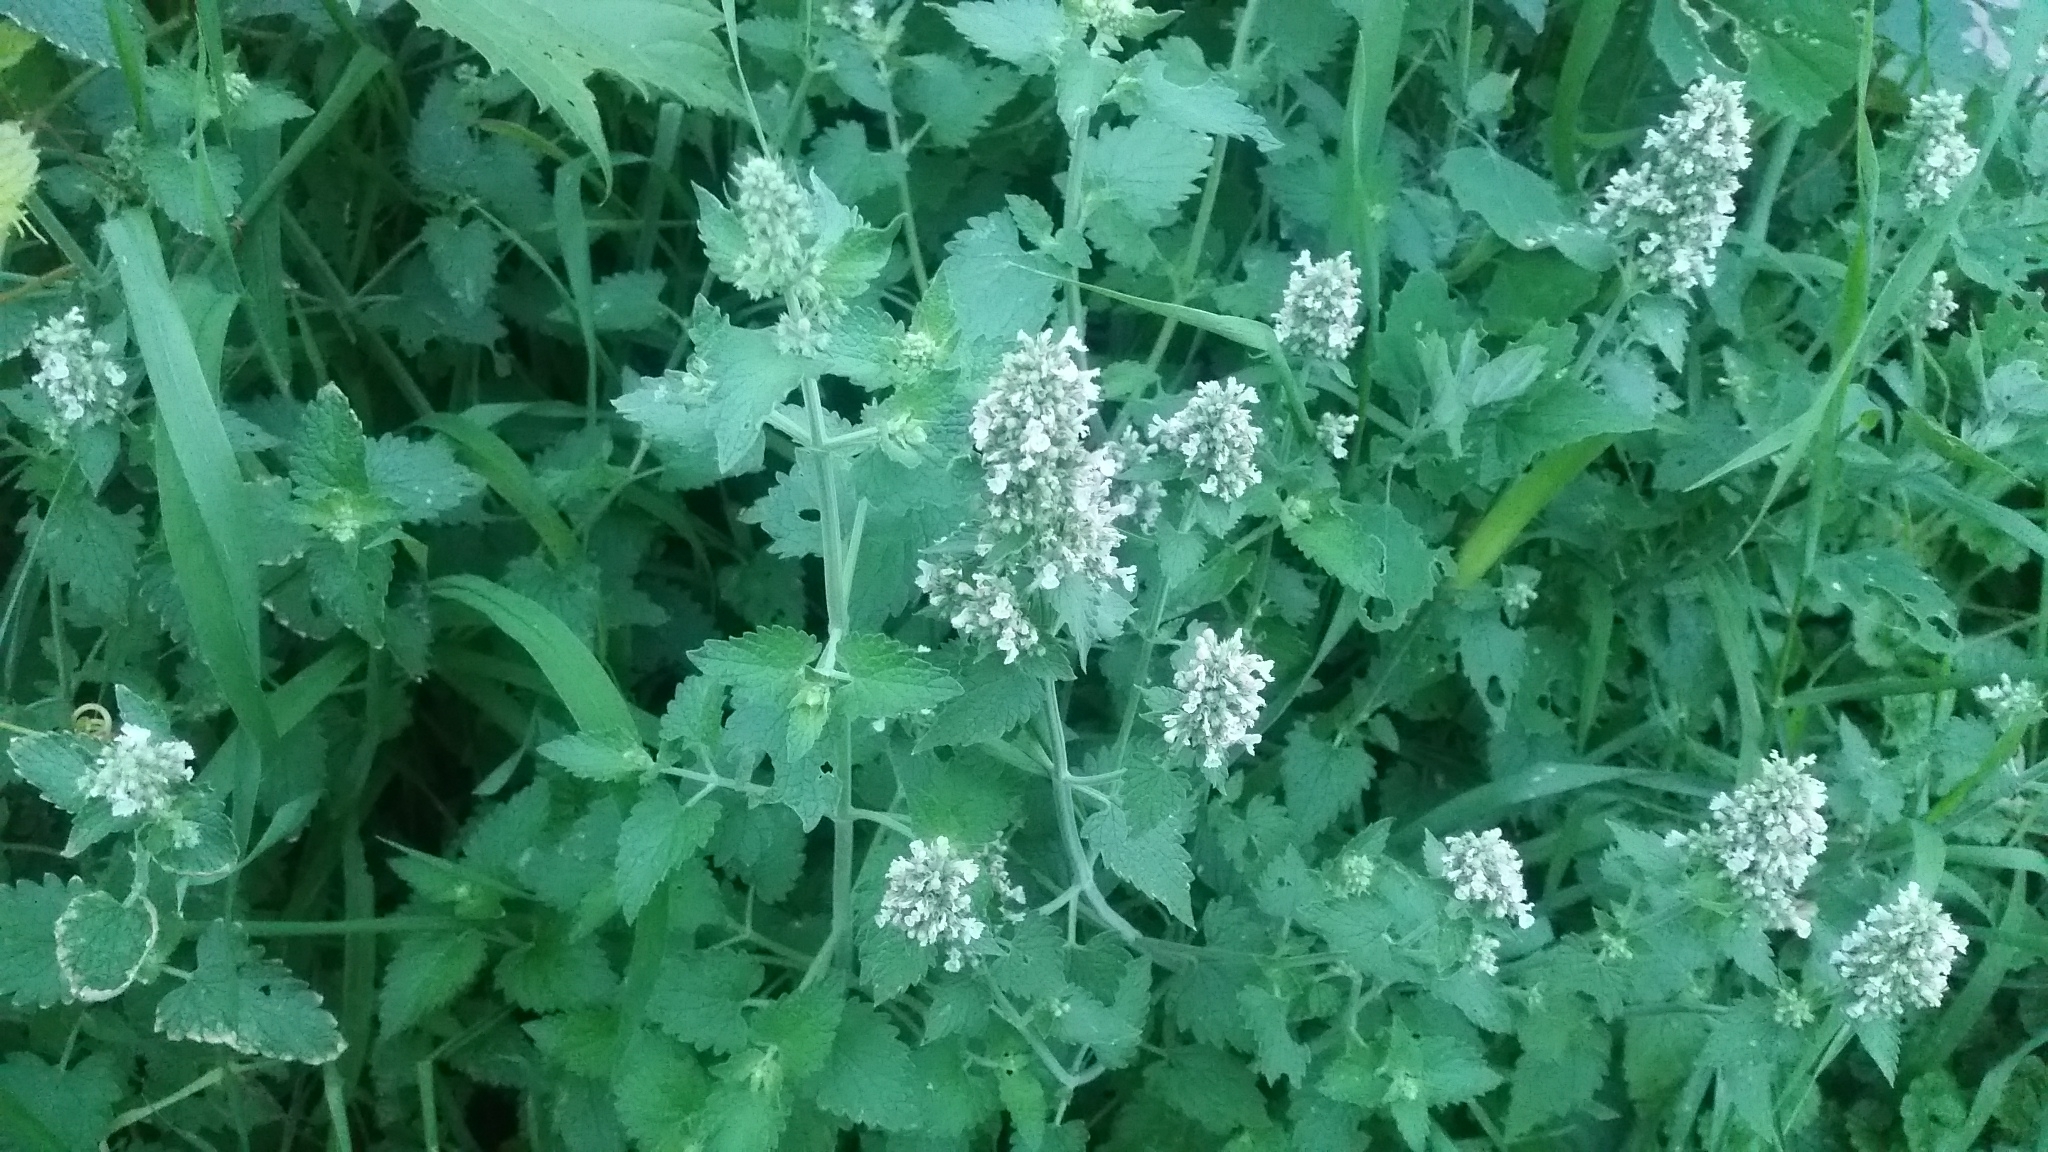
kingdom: Plantae
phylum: Tracheophyta
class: Magnoliopsida
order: Lamiales
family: Lamiaceae
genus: Nepeta
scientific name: Nepeta cataria
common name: Catnip
